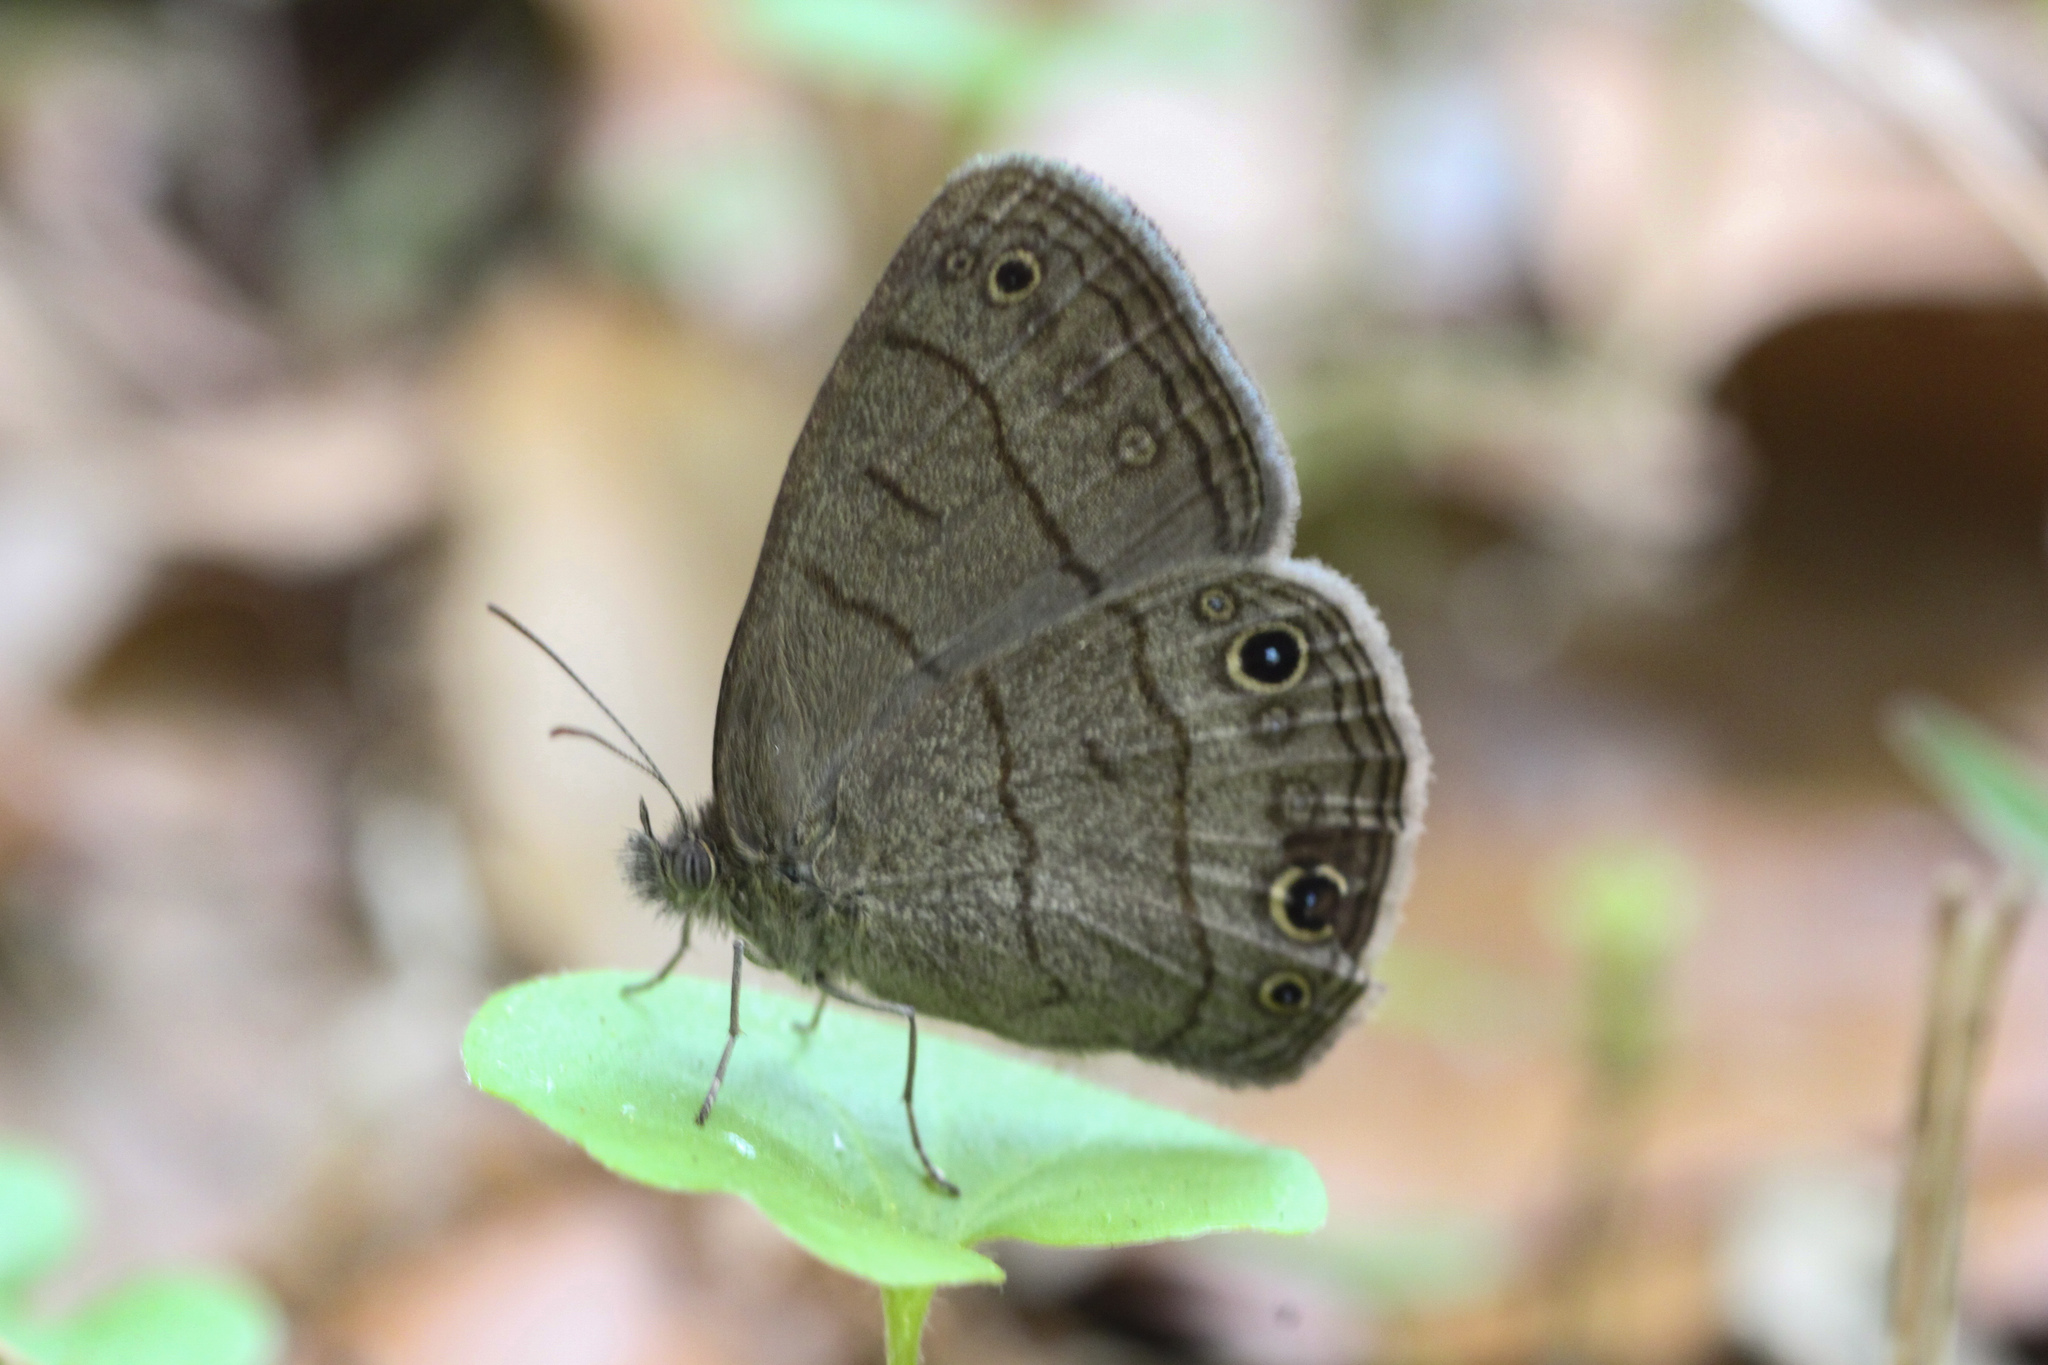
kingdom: Animalia
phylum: Arthropoda
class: Insecta
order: Lepidoptera
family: Nymphalidae
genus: Hermeuptychia
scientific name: Hermeuptychia hermes
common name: Hermes satyr
